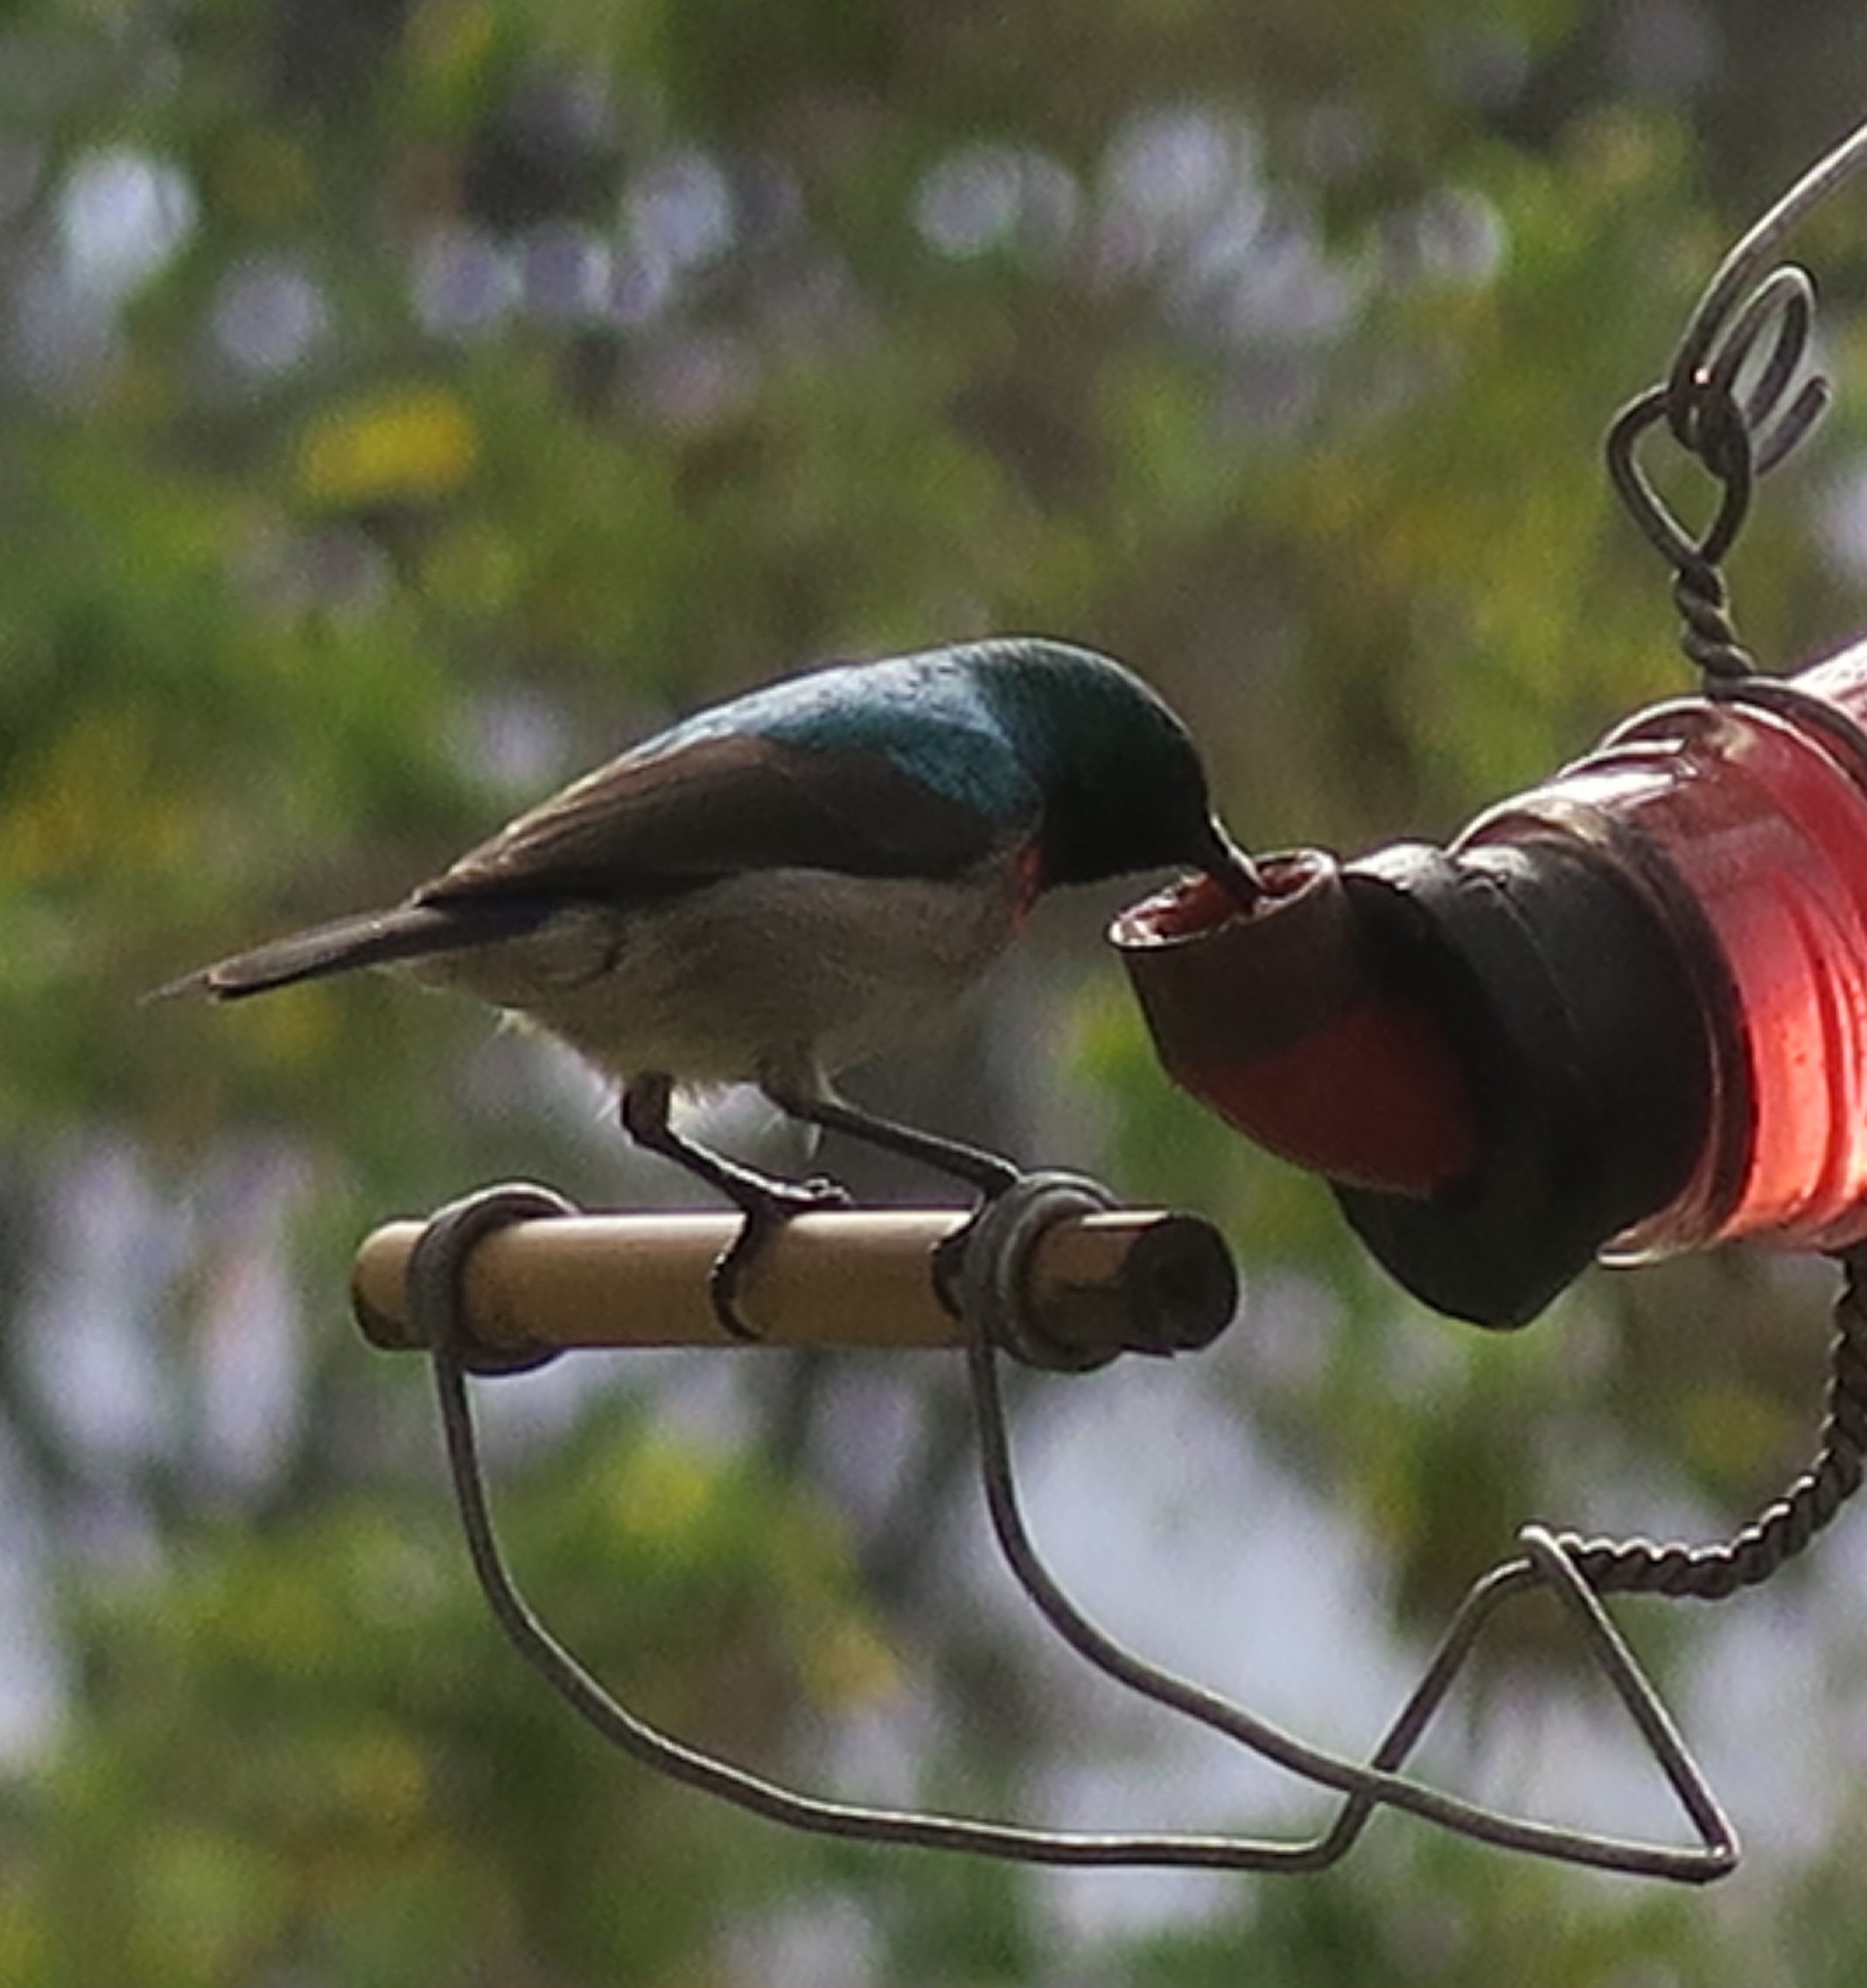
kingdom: Animalia
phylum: Chordata
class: Aves
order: Passeriformes
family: Nectariniidae
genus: Cinnyris
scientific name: Cinnyris chalybeus
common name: Southern double-collared sunbird
